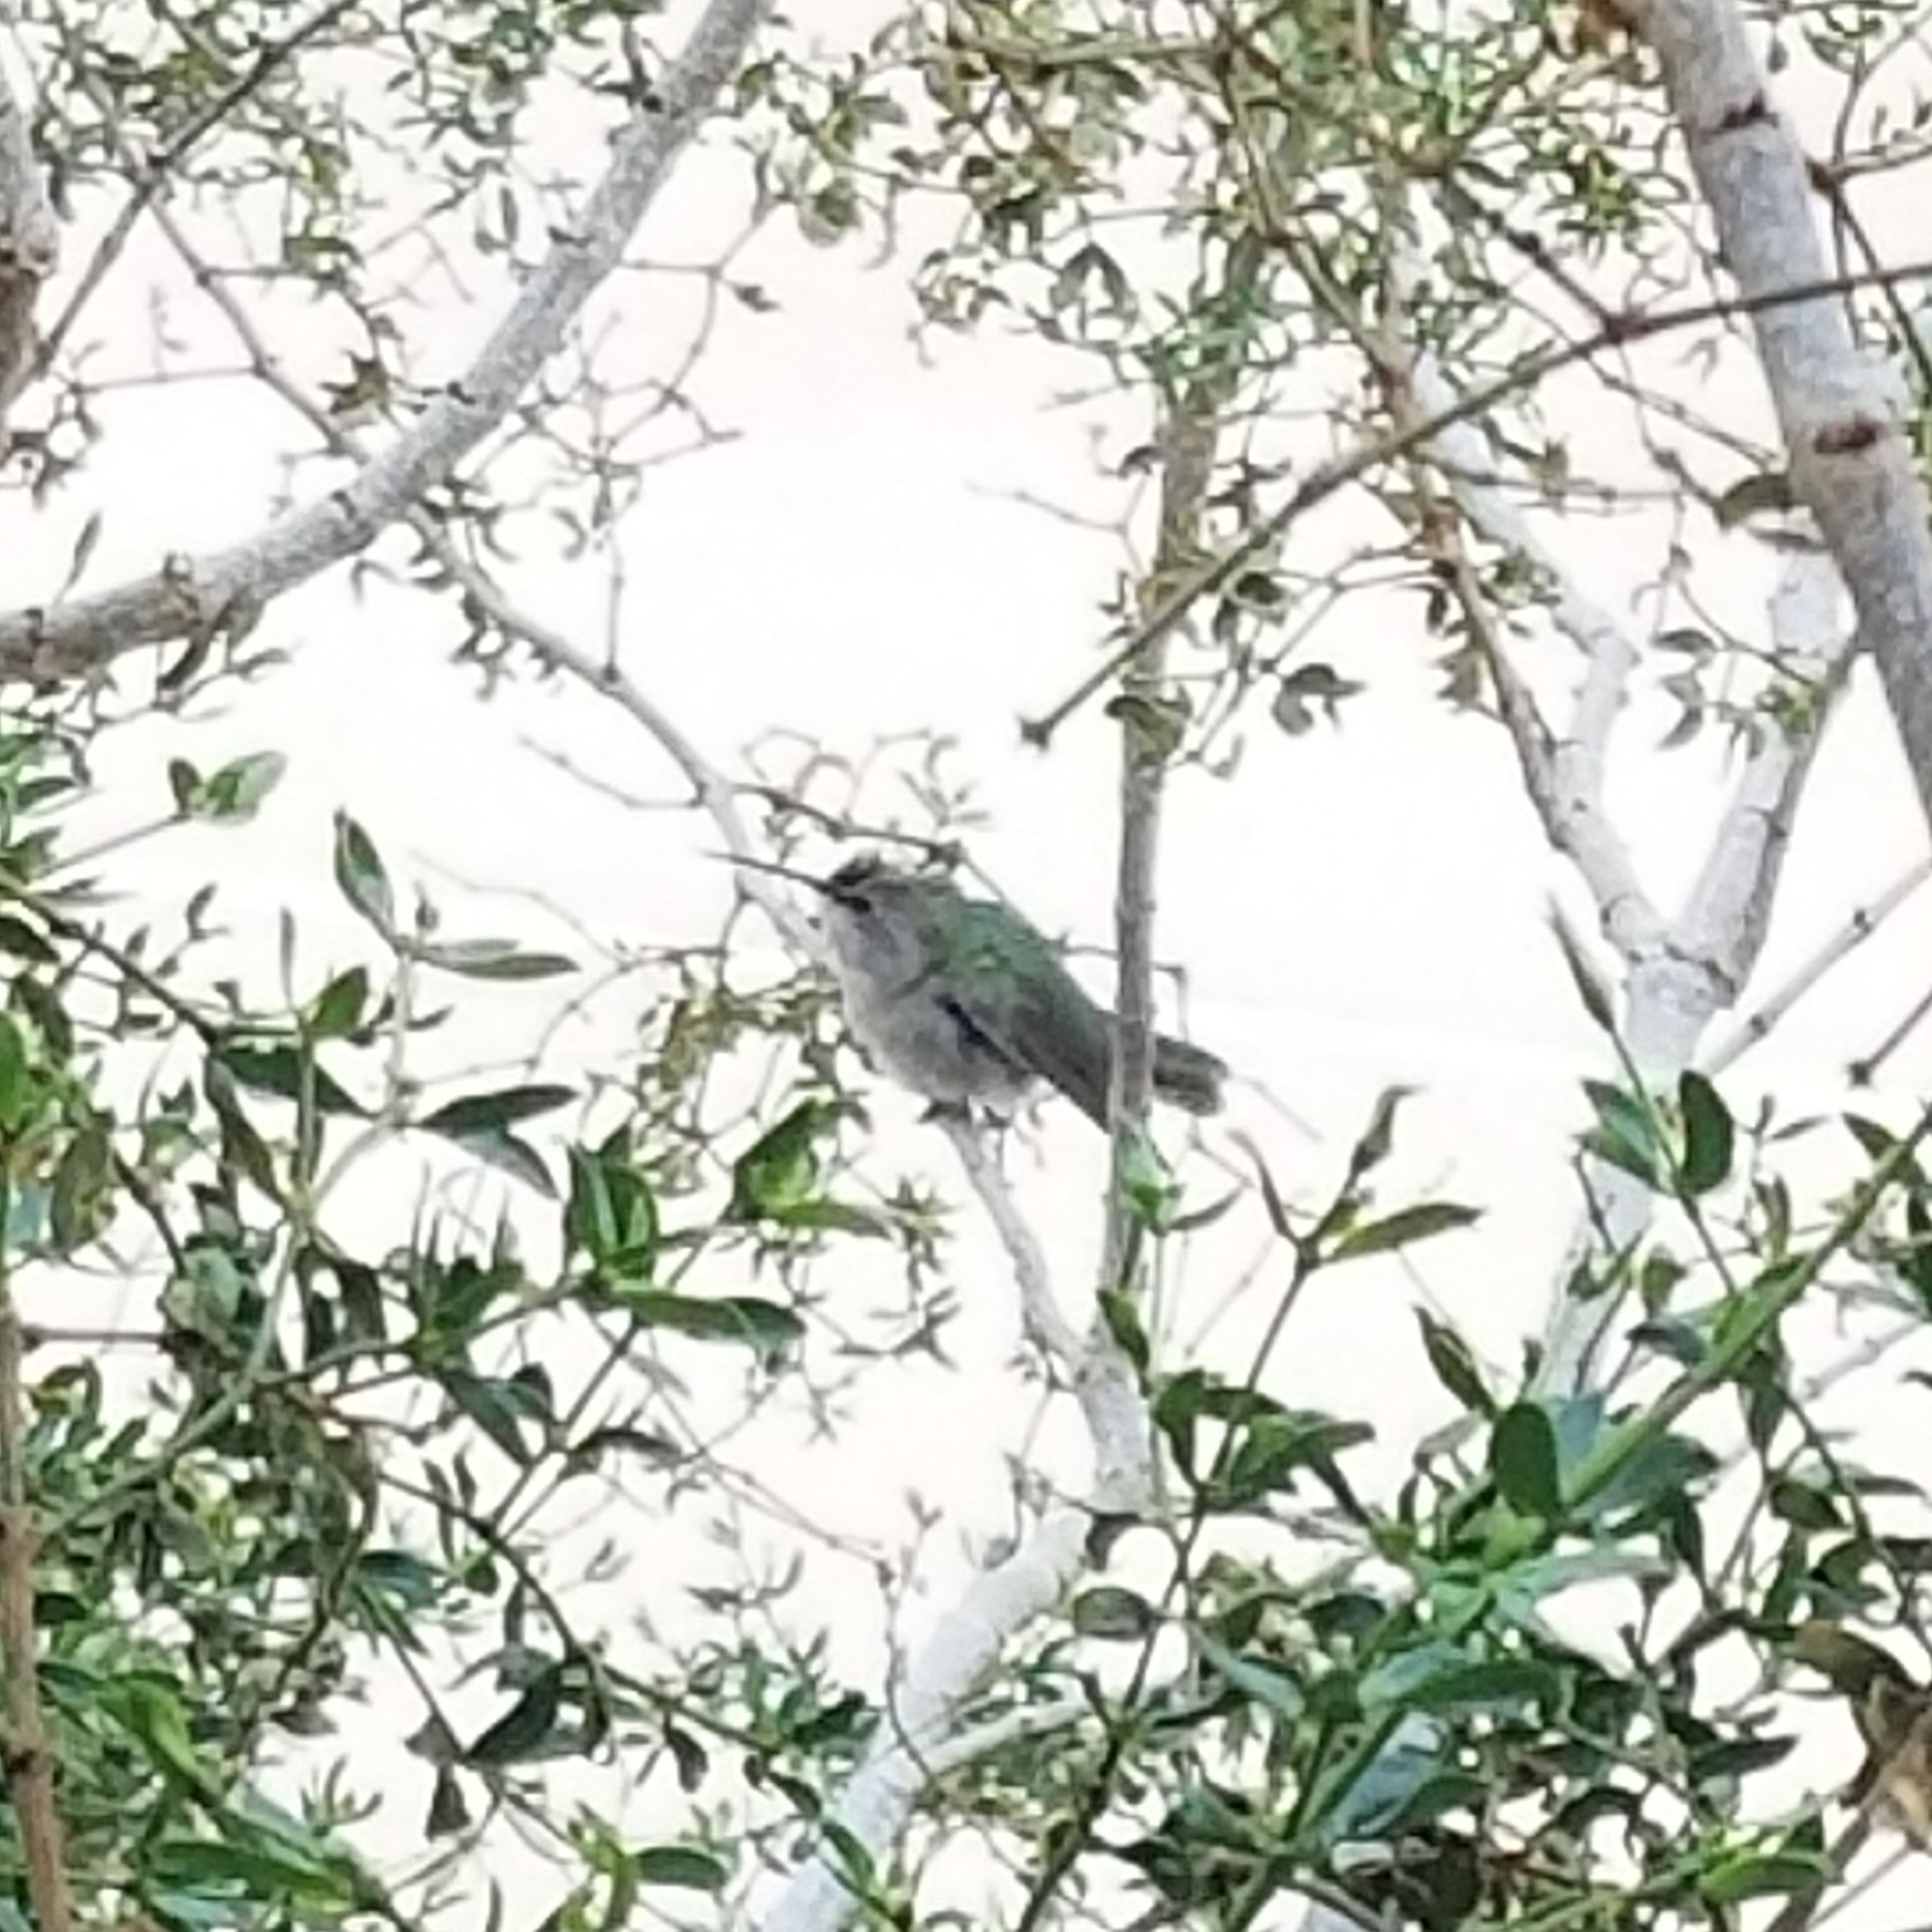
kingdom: Animalia
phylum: Chordata
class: Aves
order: Apodiformes
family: Trochilidae
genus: Calypte
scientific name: Calypte costae
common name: Costa's hummingbird
